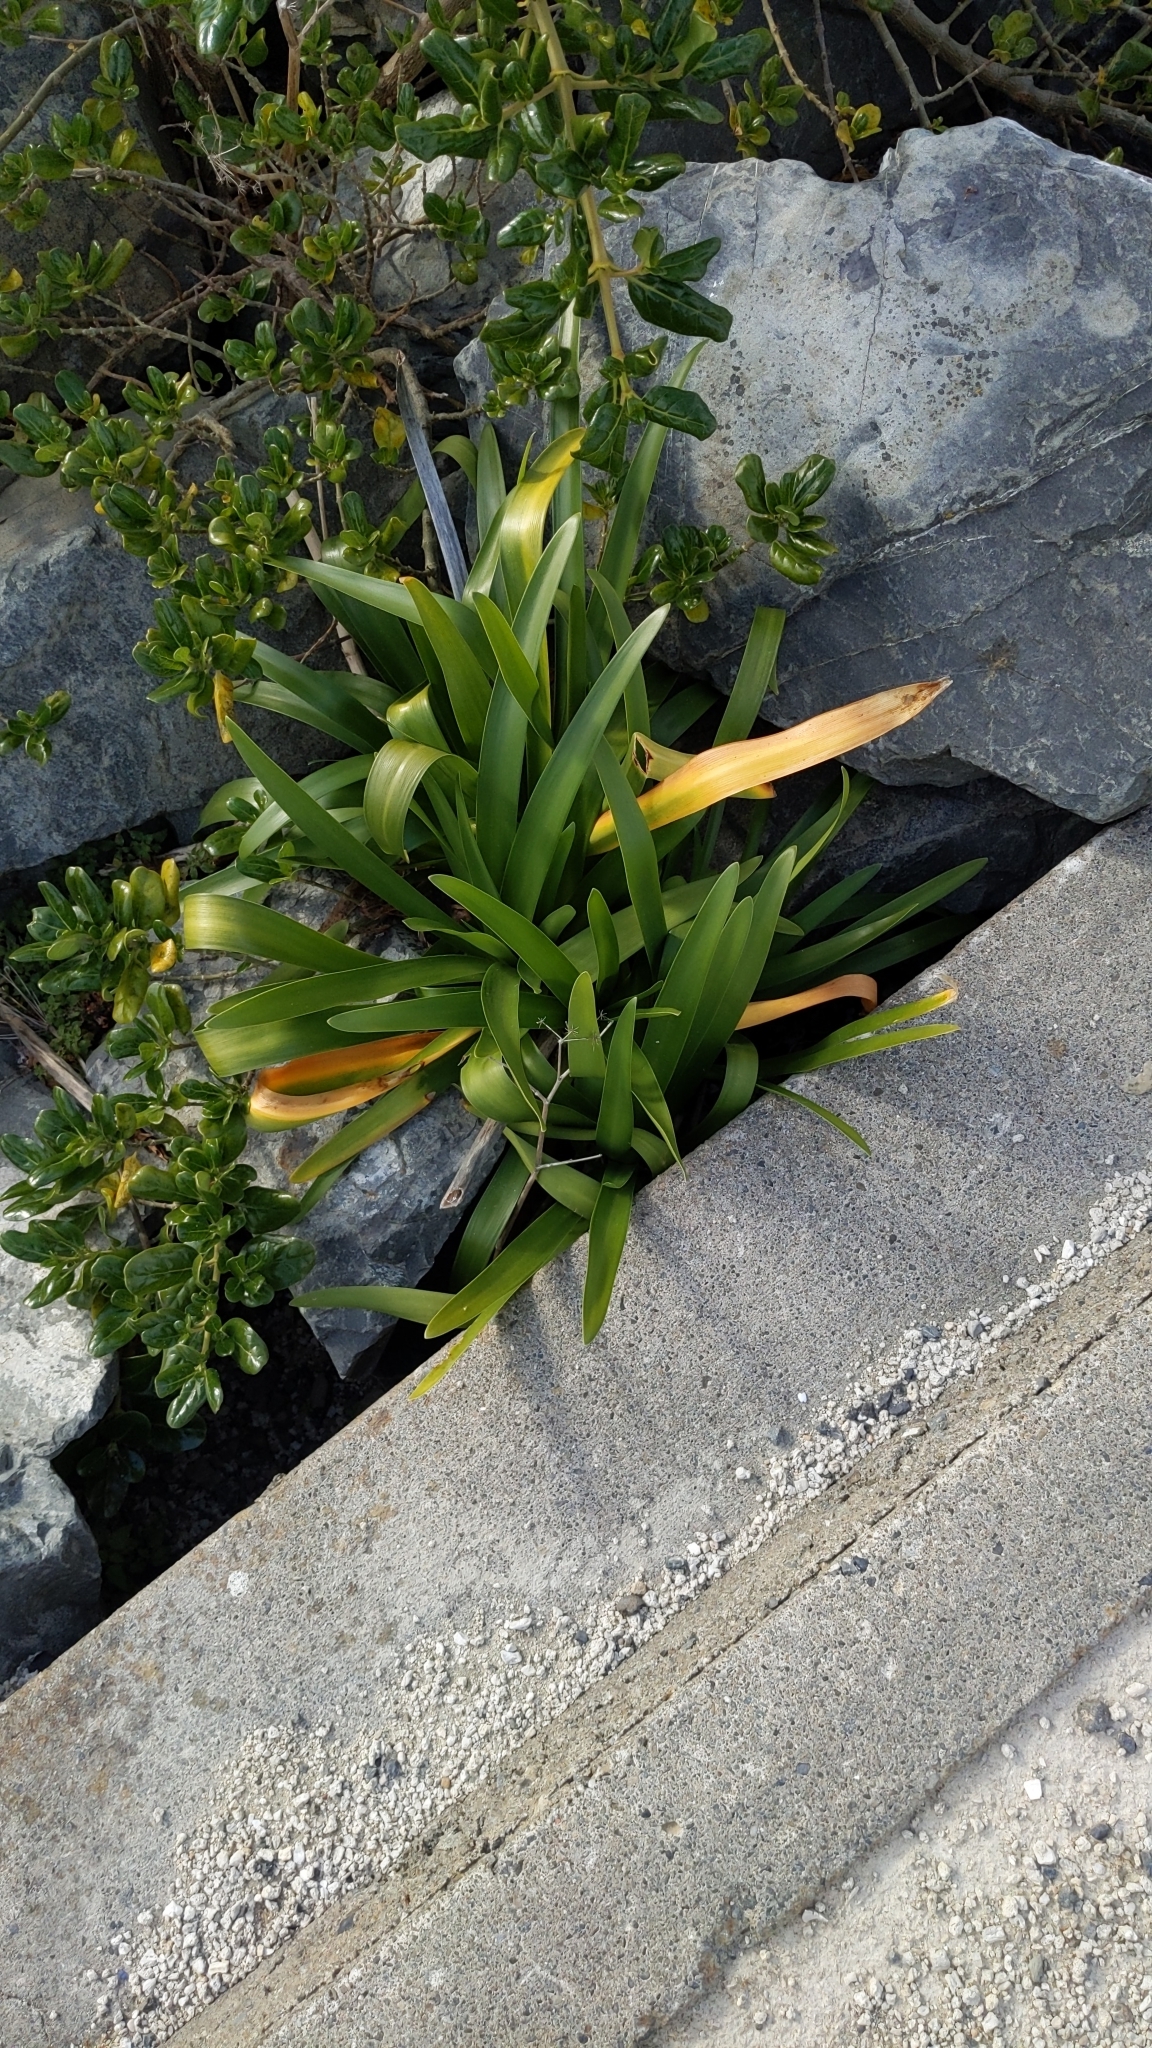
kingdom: Plantae
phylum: Tracheophyta
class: Liliopsida
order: Asparagales
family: Amaryllidaceae
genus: Agapanthus
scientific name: Agapanthus praecox
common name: African-lily
